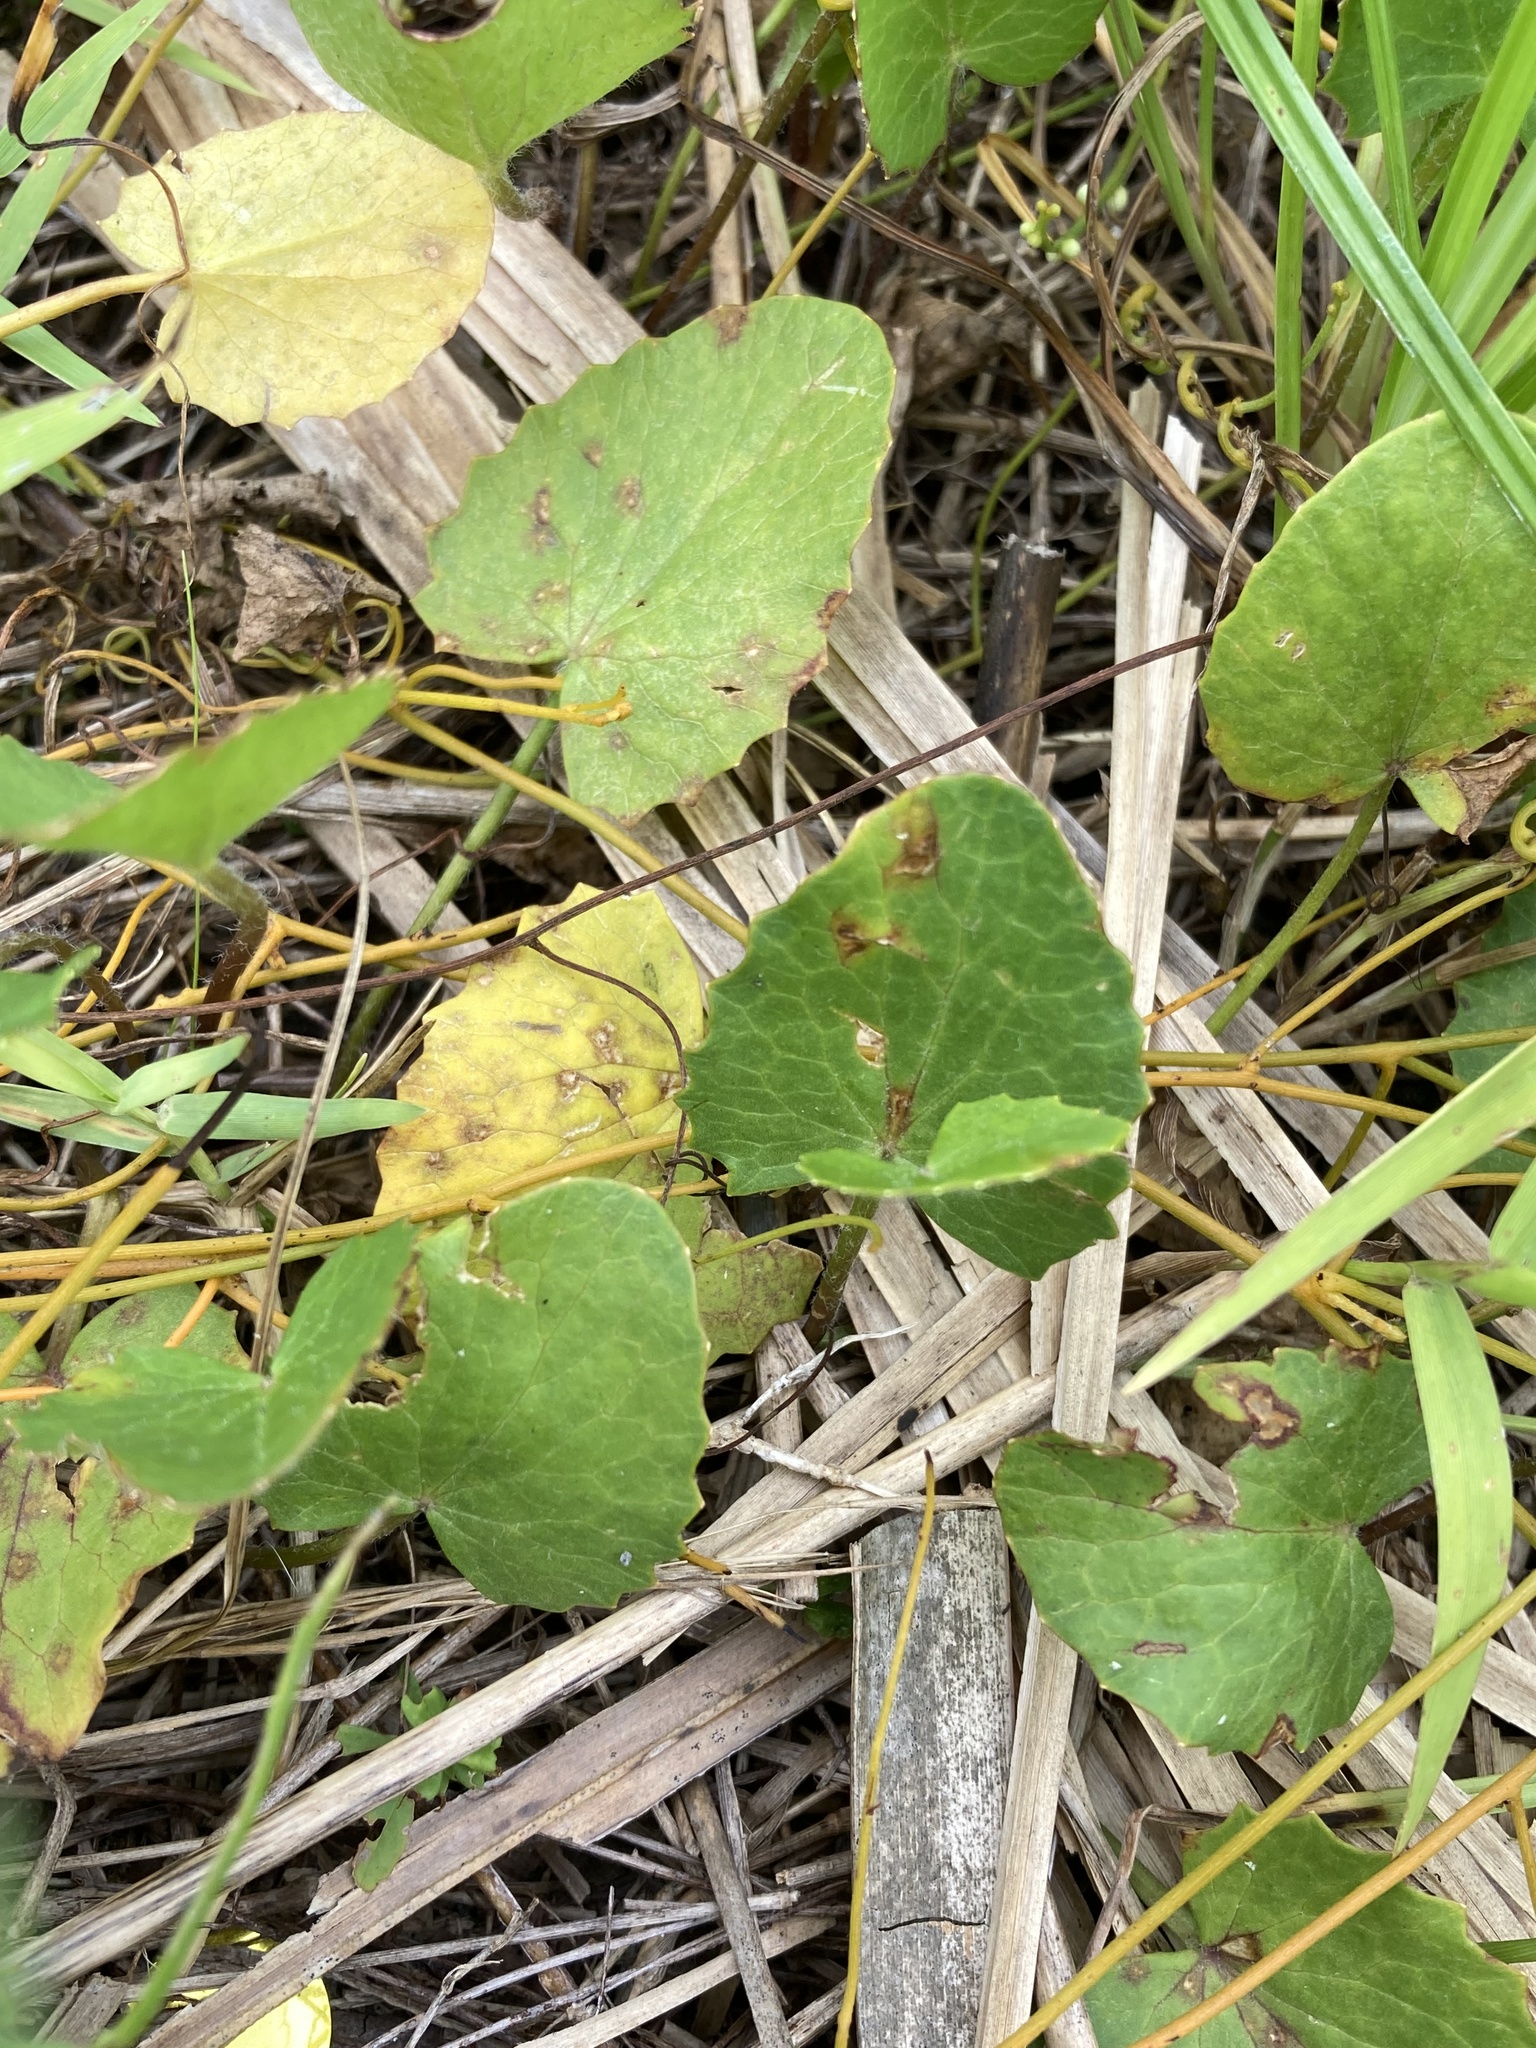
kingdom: Plantae
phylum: Tracheophyta
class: Magnoliopsida
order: Apiales
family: Apiaceae
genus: Centella
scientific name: Centella erecta
